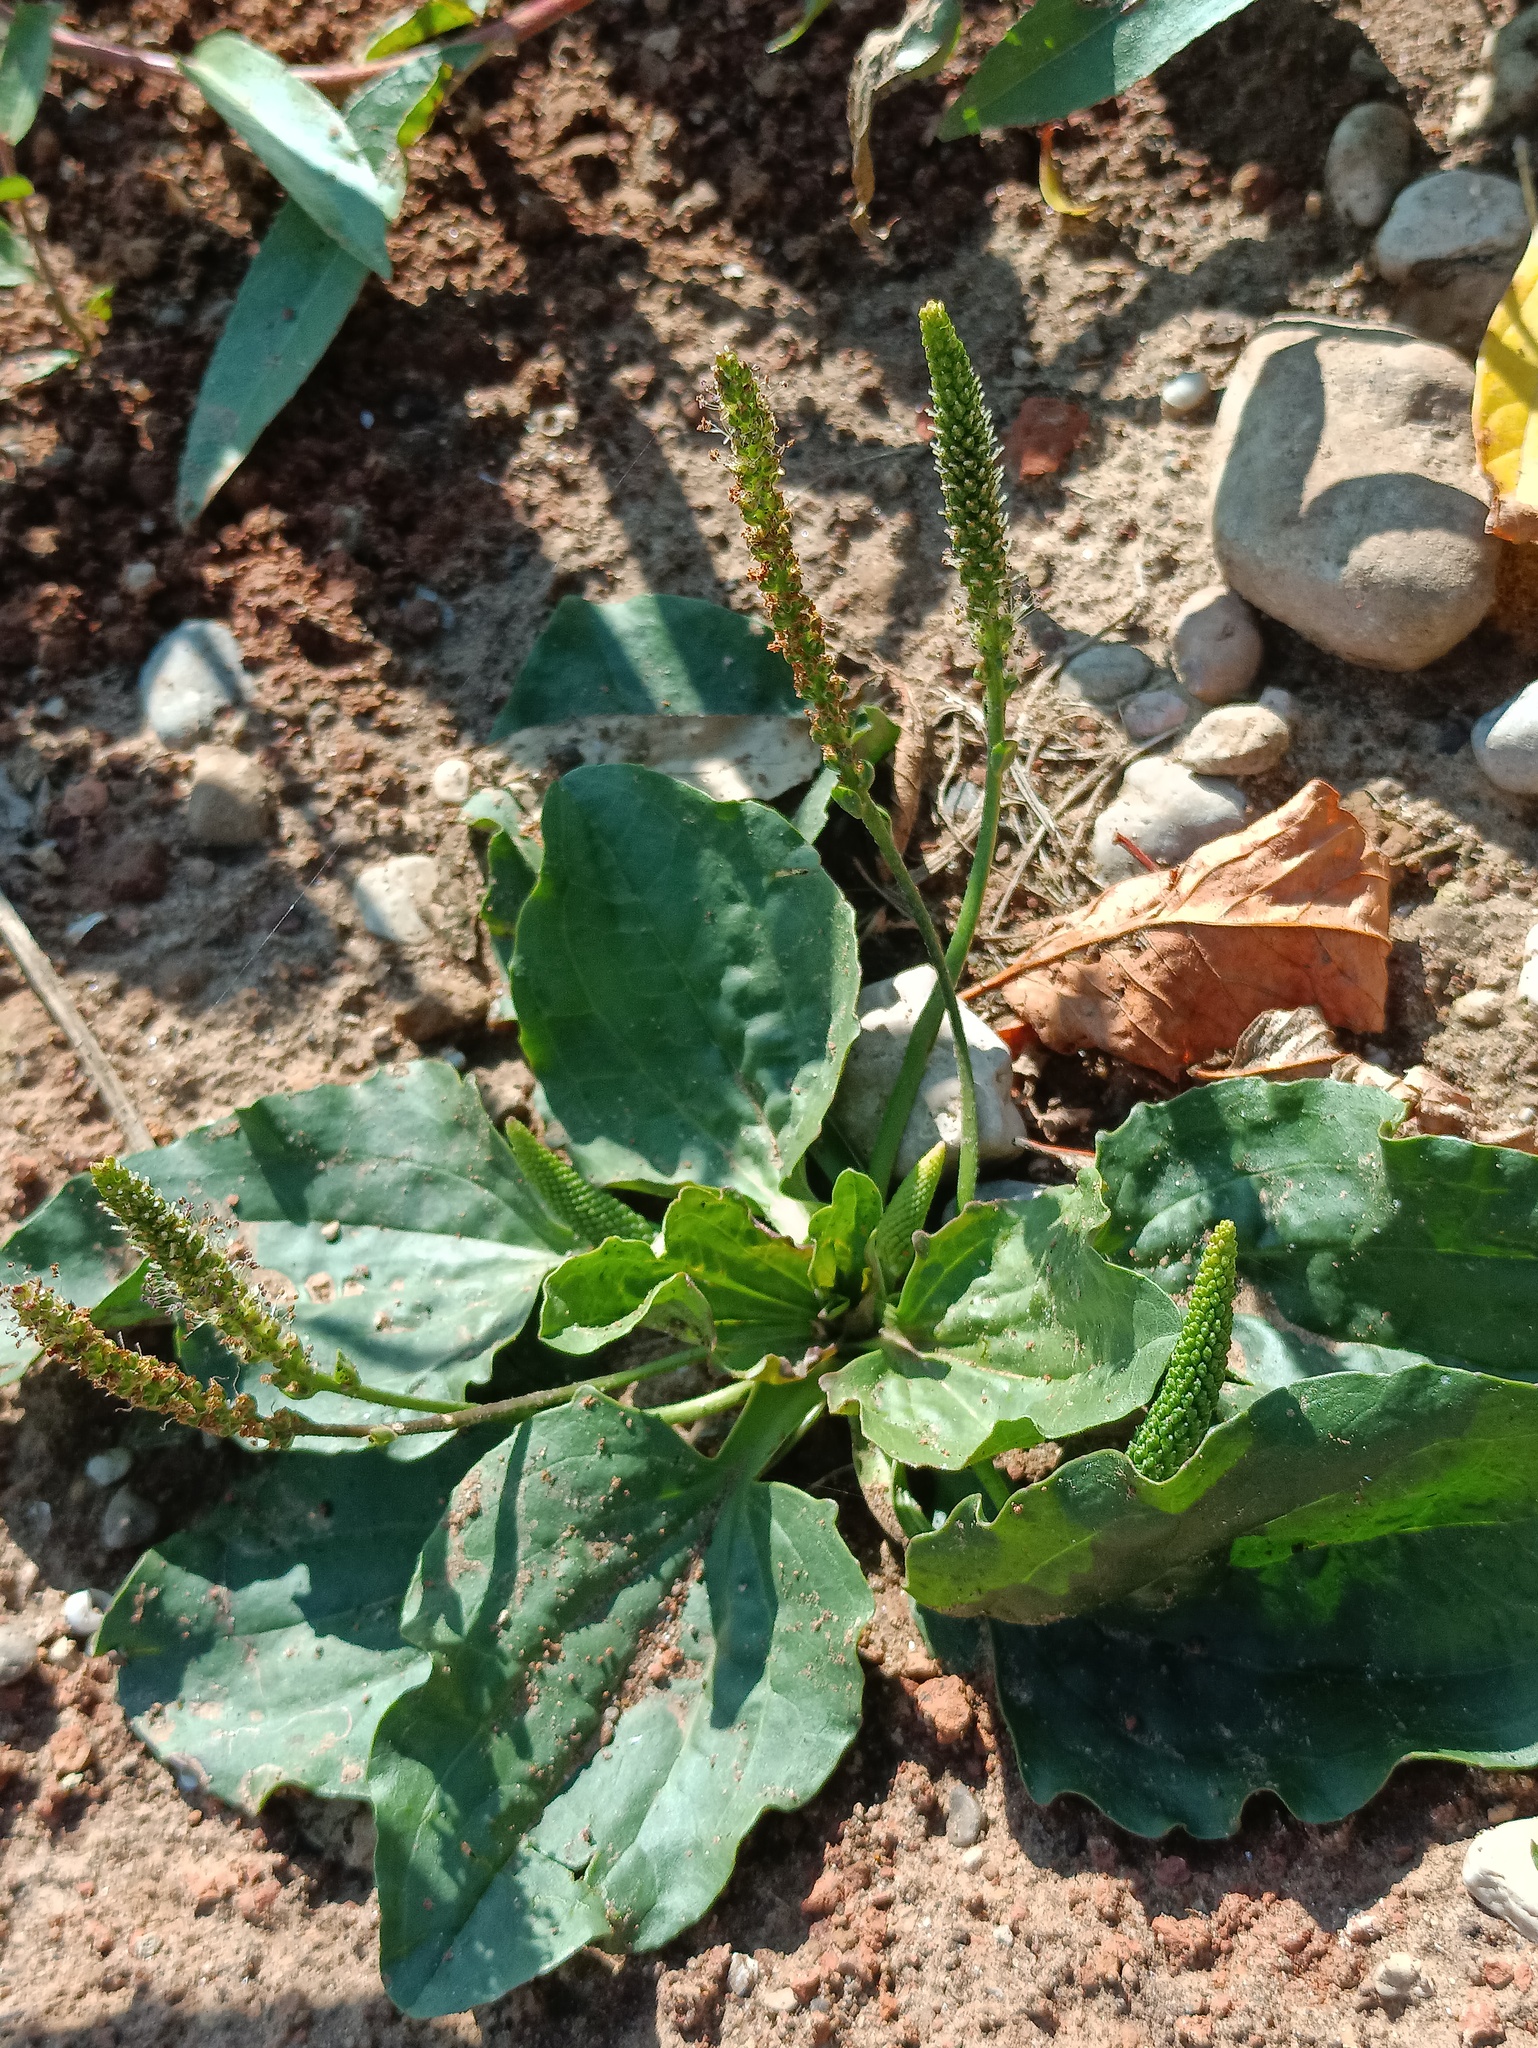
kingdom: Plantae
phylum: Tracheophyta
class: Magnoliopsida
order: Lamiales
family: Plantaginaceae
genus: Plantago
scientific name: Plantago major
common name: Common plantain
